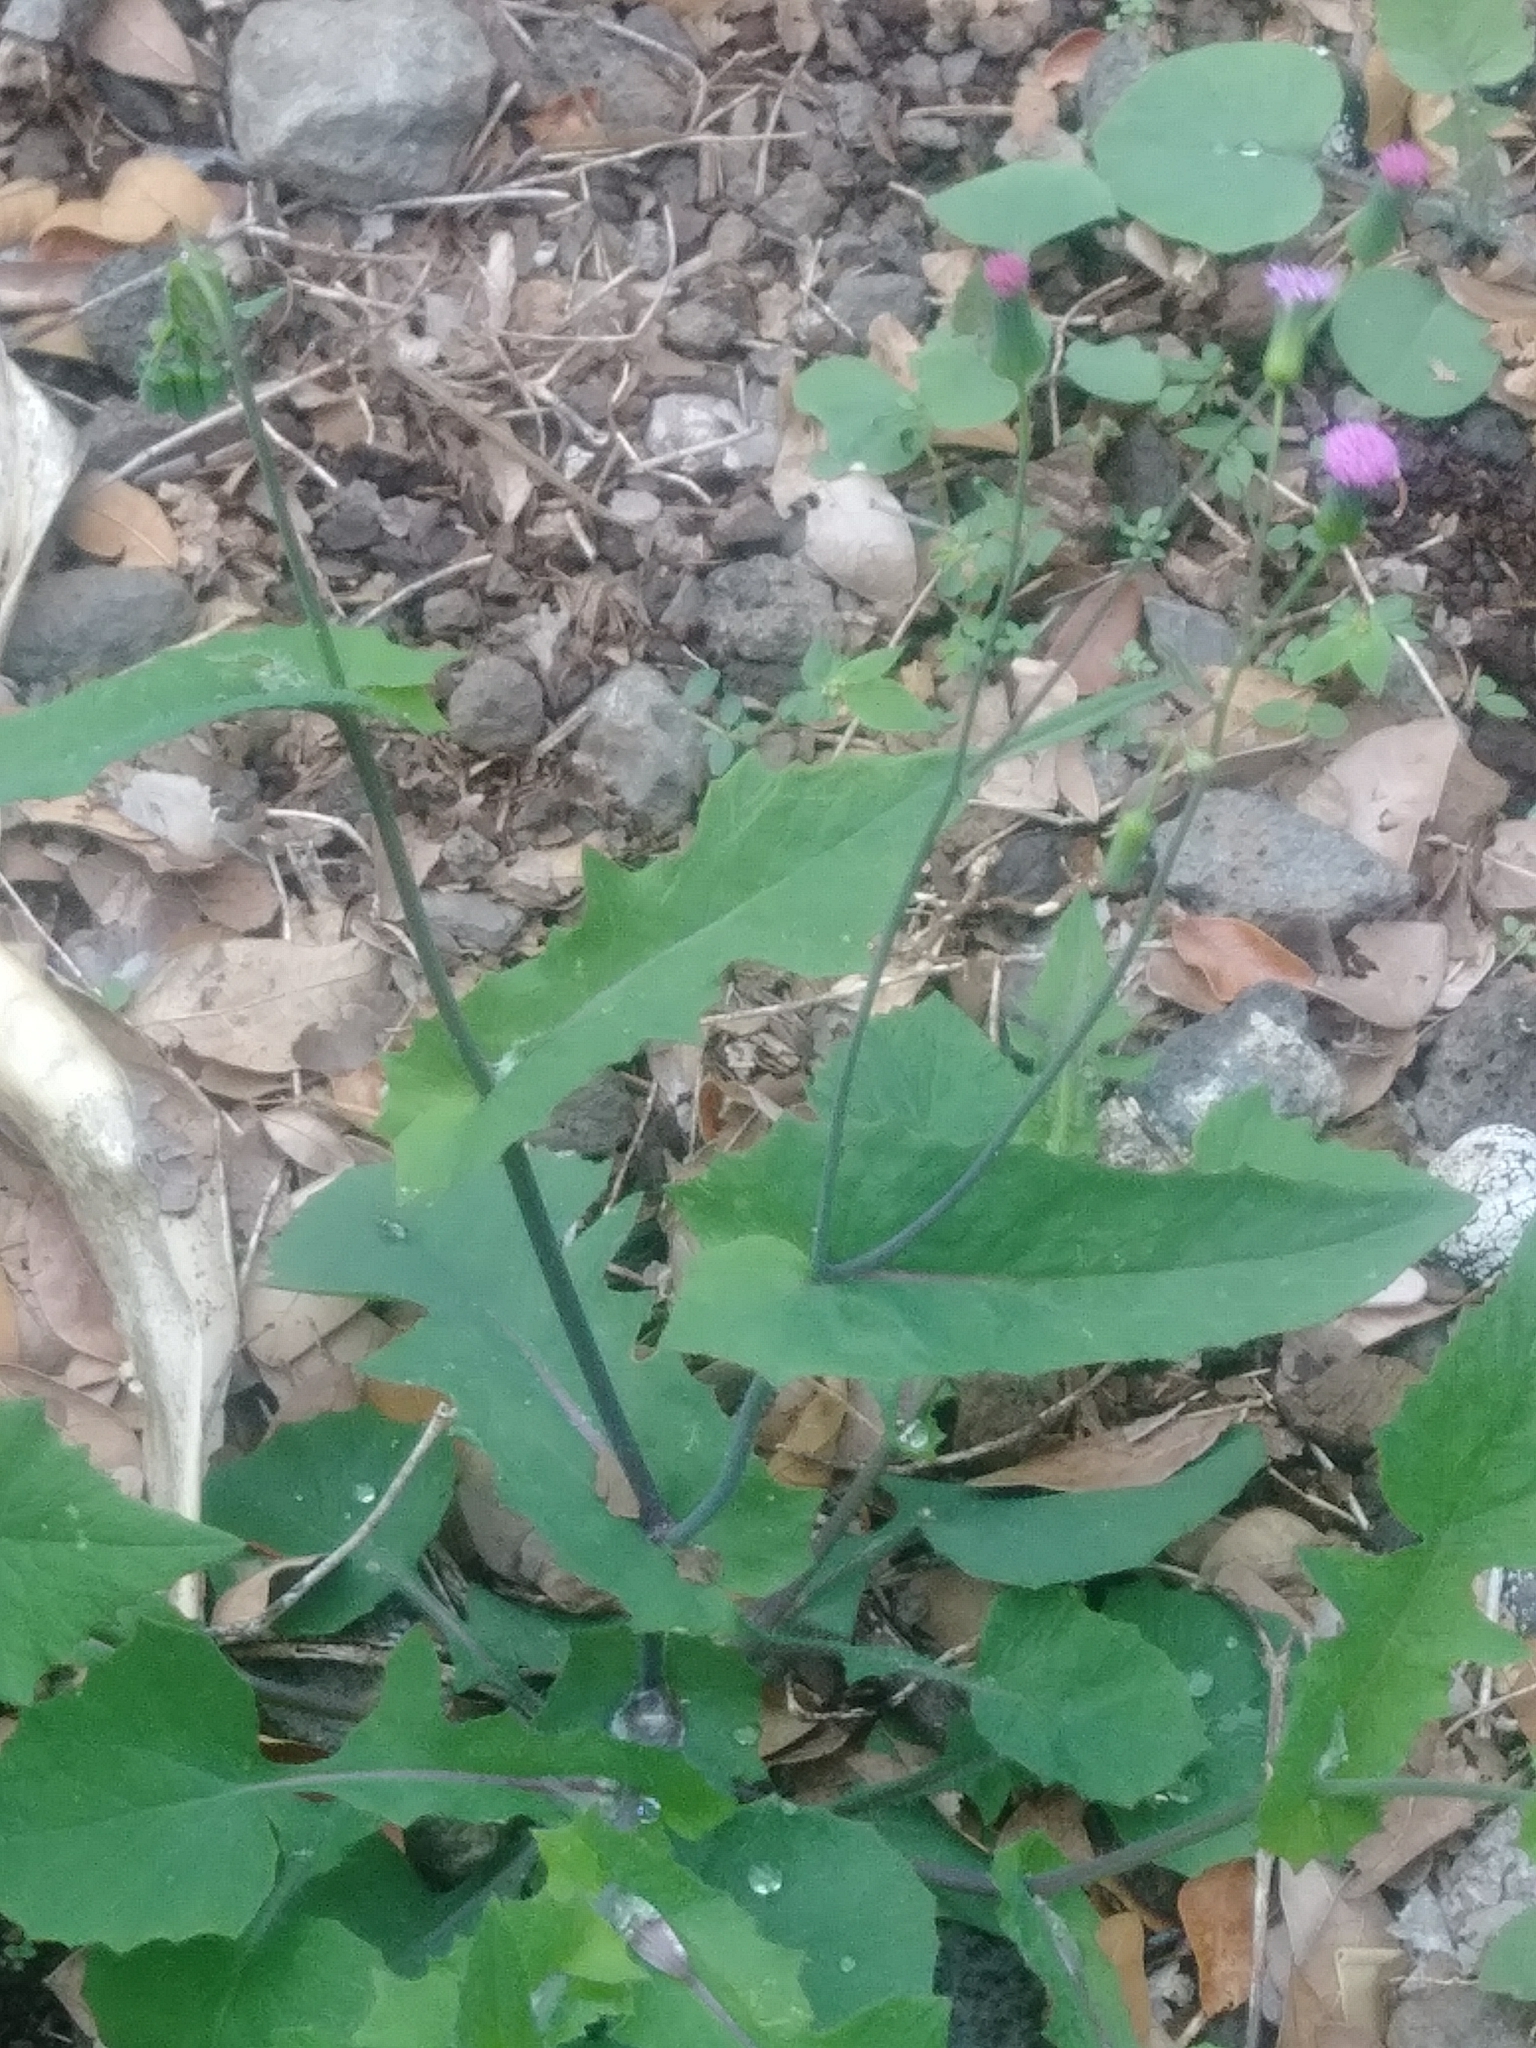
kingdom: Plantae
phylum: Tracheophyta
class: Magnoliopsida
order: Asterales
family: Asteraceae
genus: Emilia
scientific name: Emilia sonchifolia
